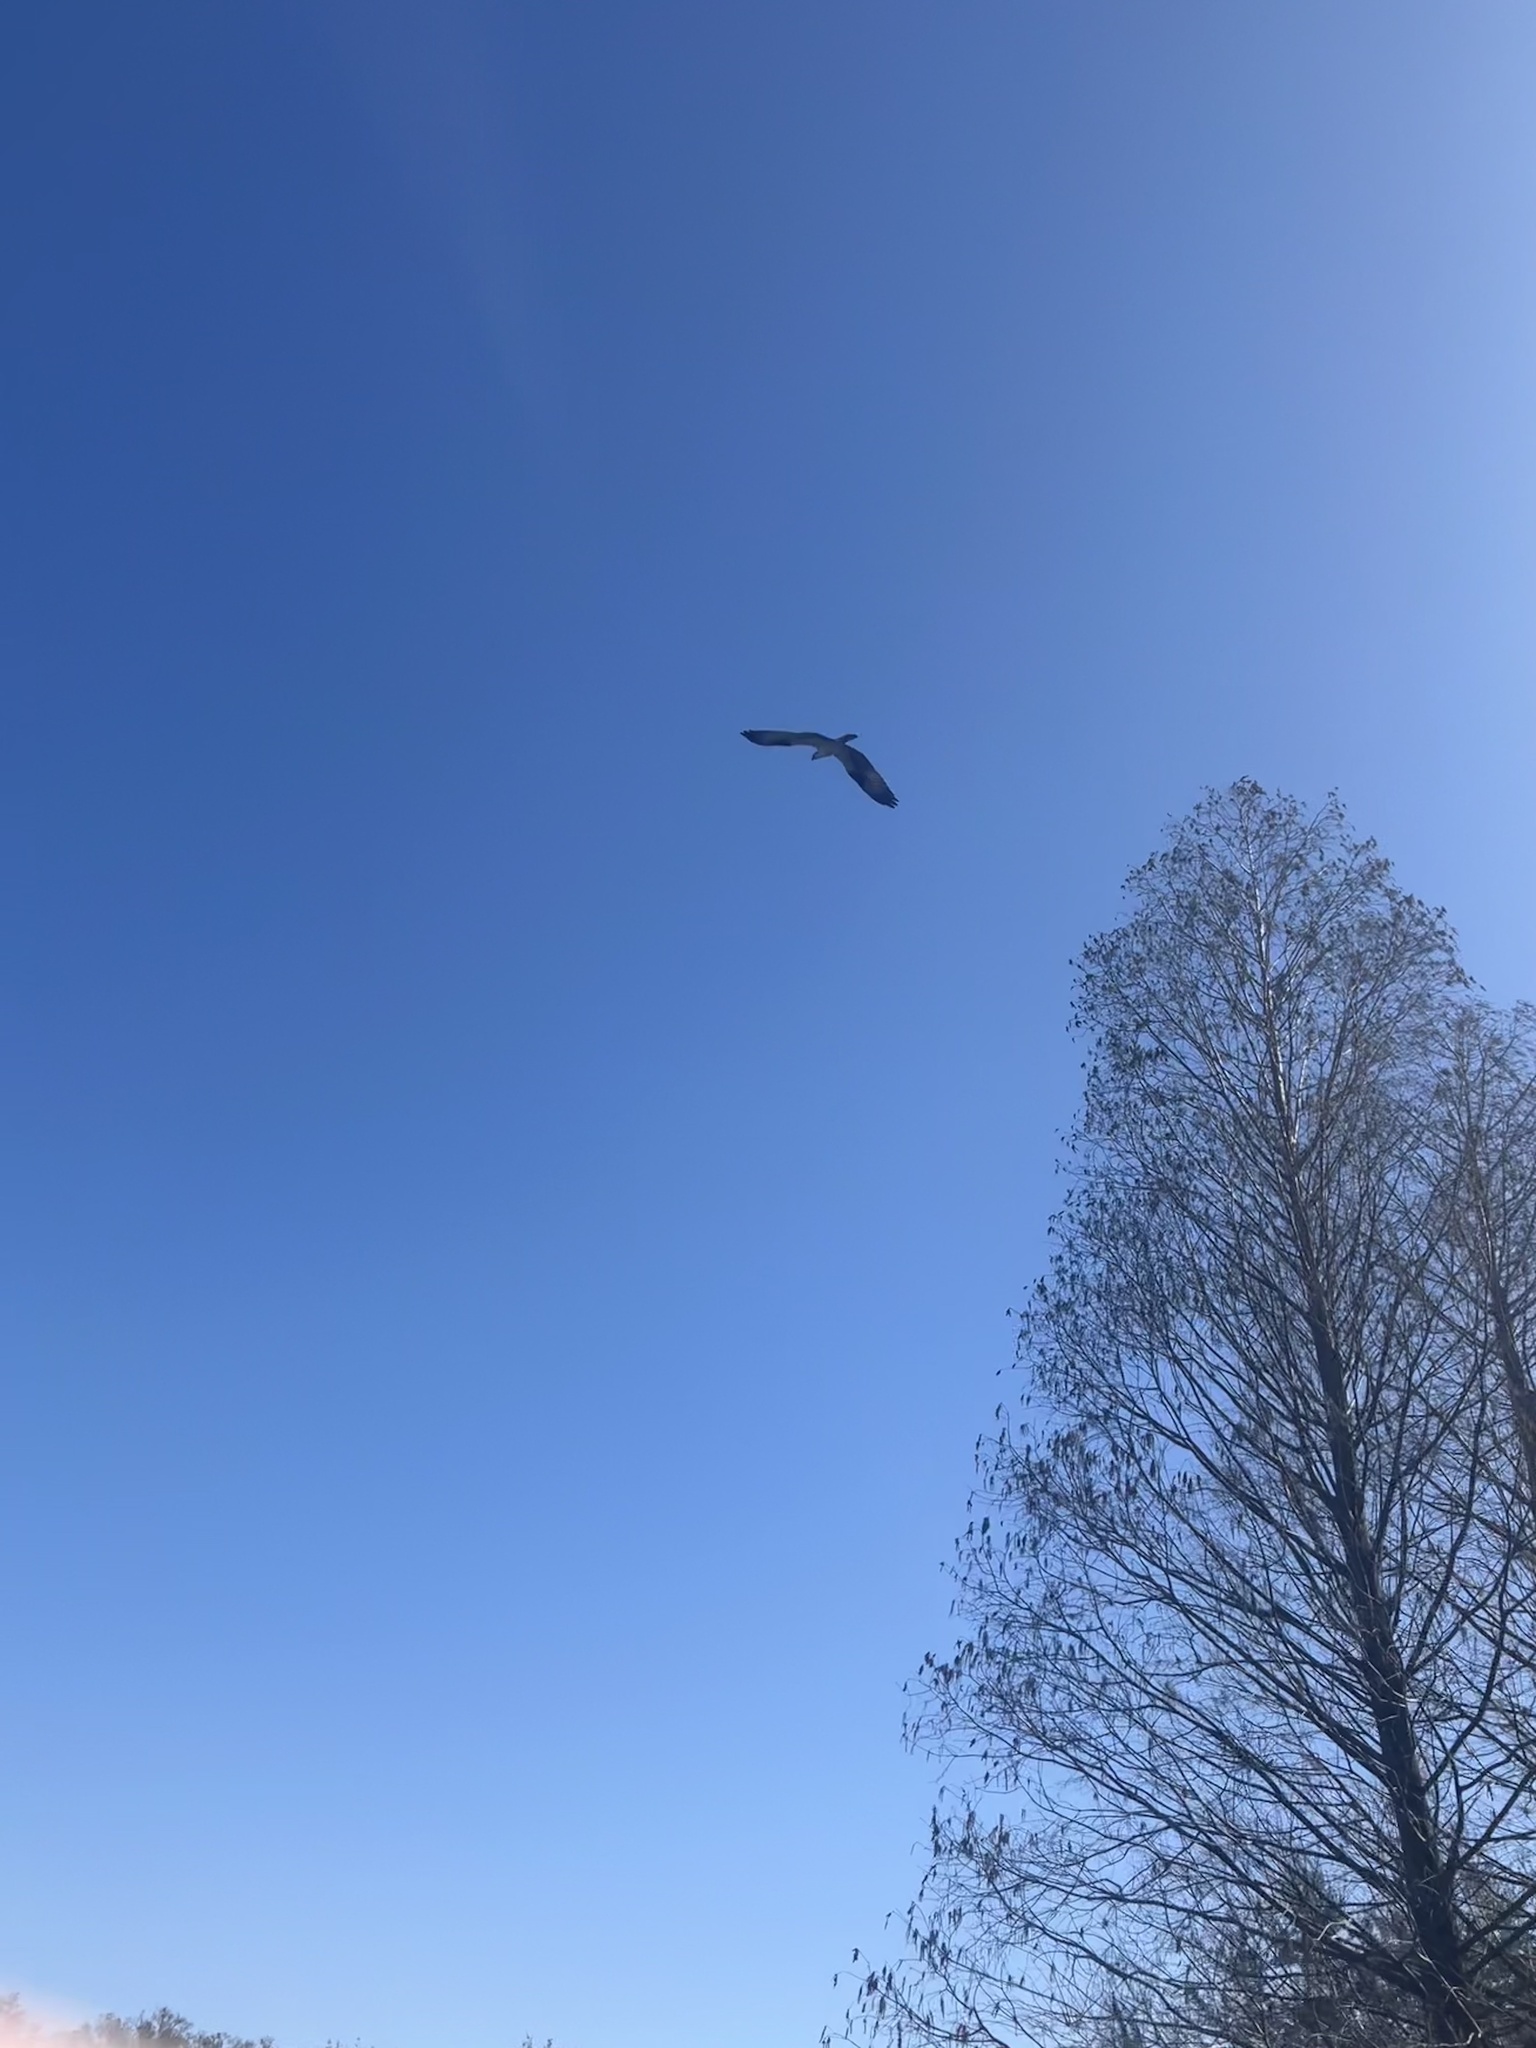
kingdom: Animalia
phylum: Chordata
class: Aves
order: Accipitriformes
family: Pandionidae
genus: Pandion
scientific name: Pandion haliaetus
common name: Osprey
